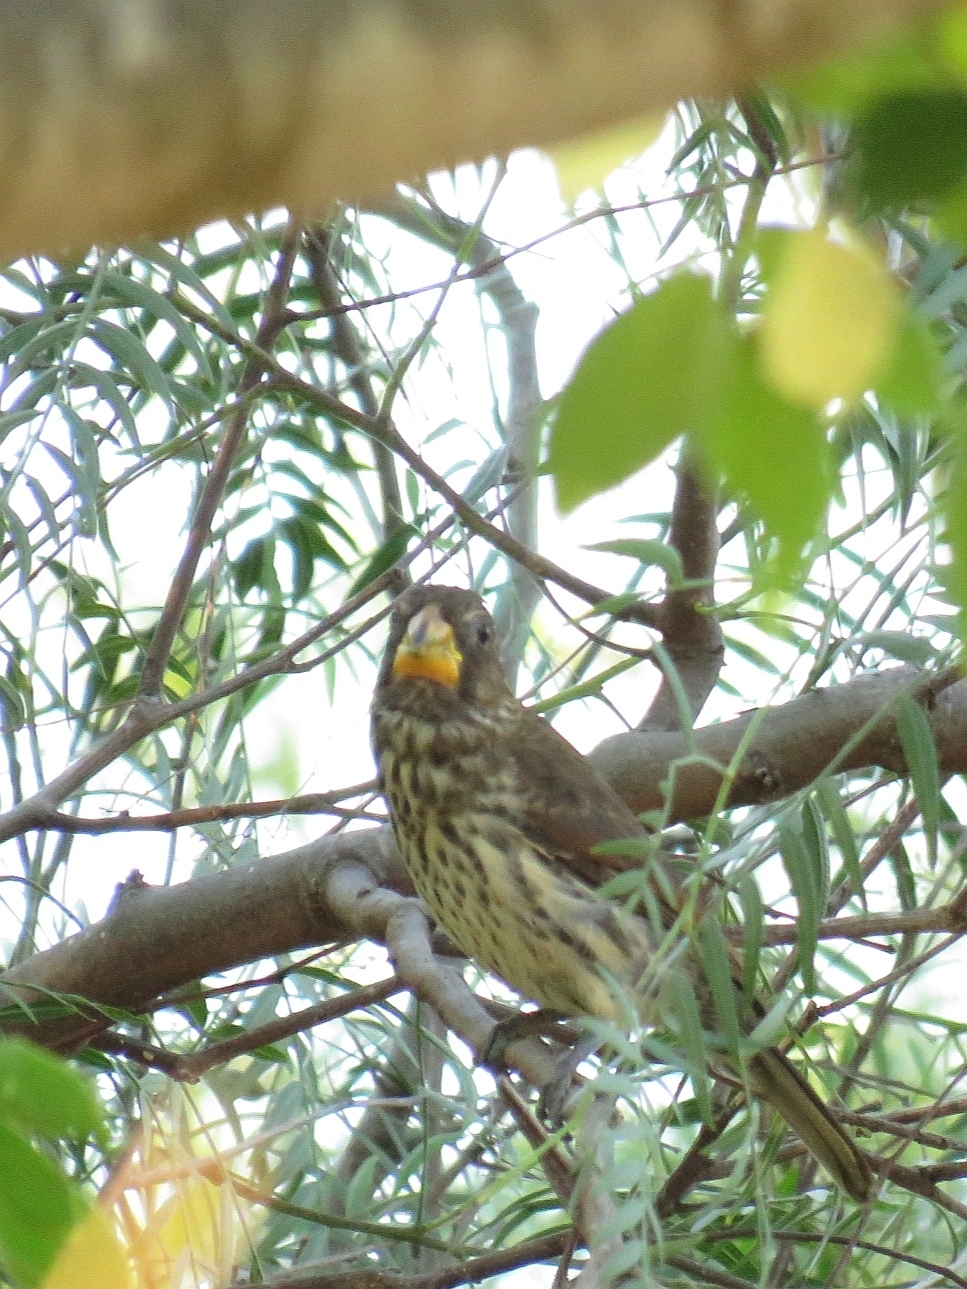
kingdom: Animalia
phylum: Chordata
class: Aves
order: Passeriformes
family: Ploceidae
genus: Amblyospiza
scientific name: Amblyospiza albifrons
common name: Thick-billed weaver
